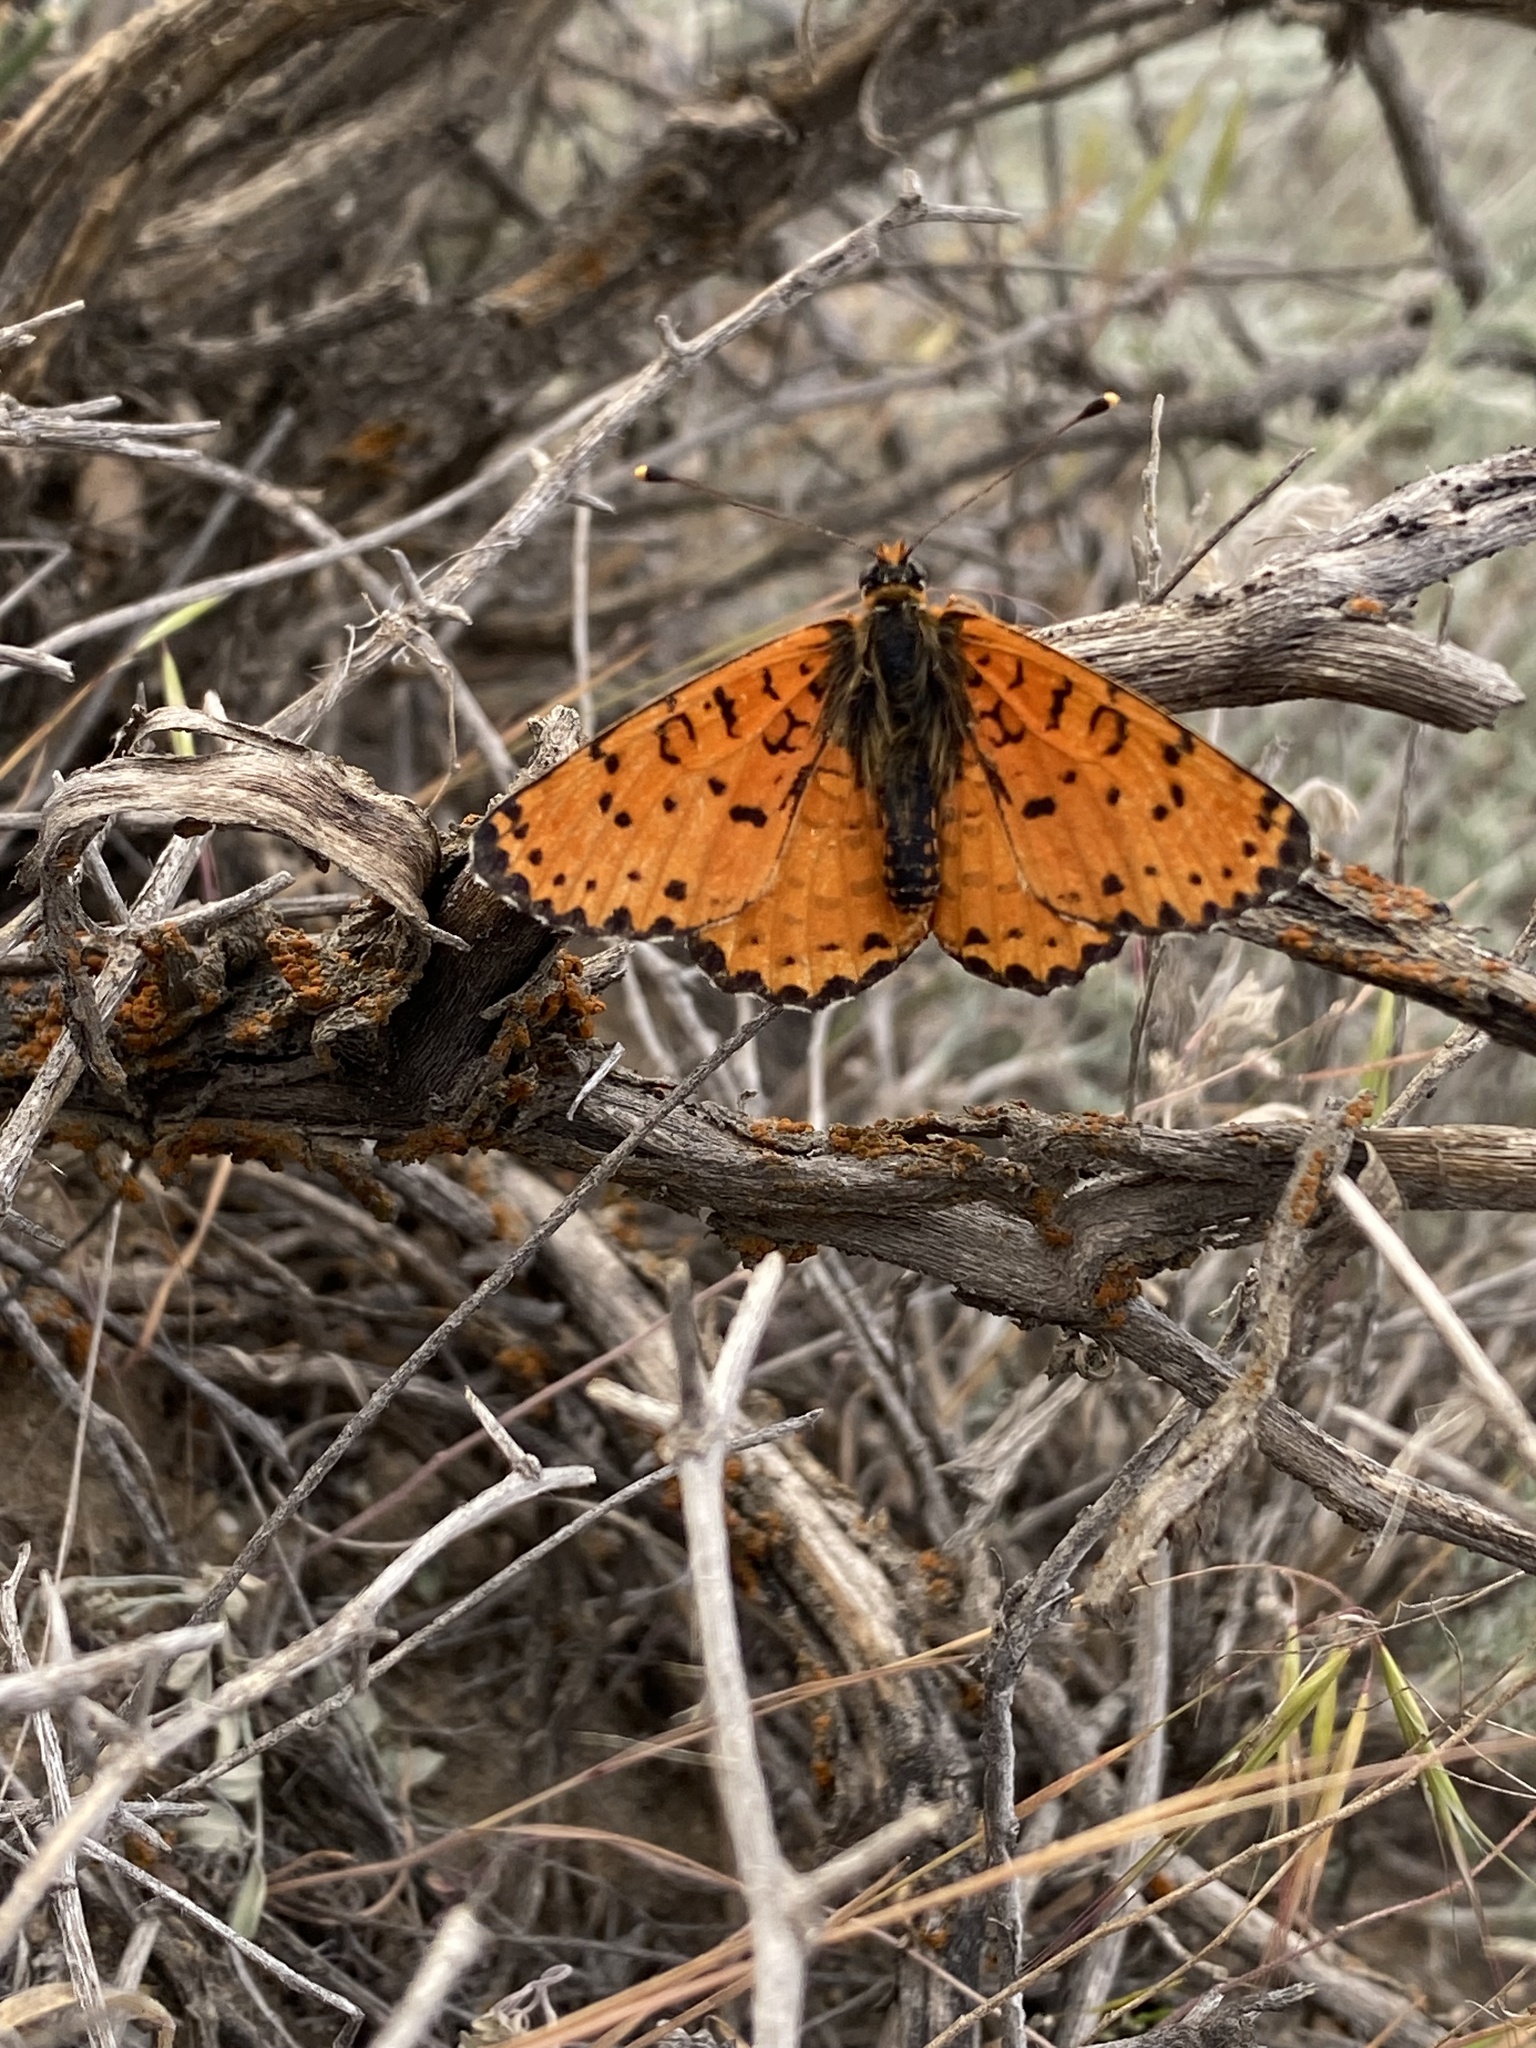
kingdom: Animalia
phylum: Arthropoda
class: Insecta
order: Lepidoptera
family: Nymphalidae
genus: Melitaea
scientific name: Melitaea didyma
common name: Spotted fritillary
